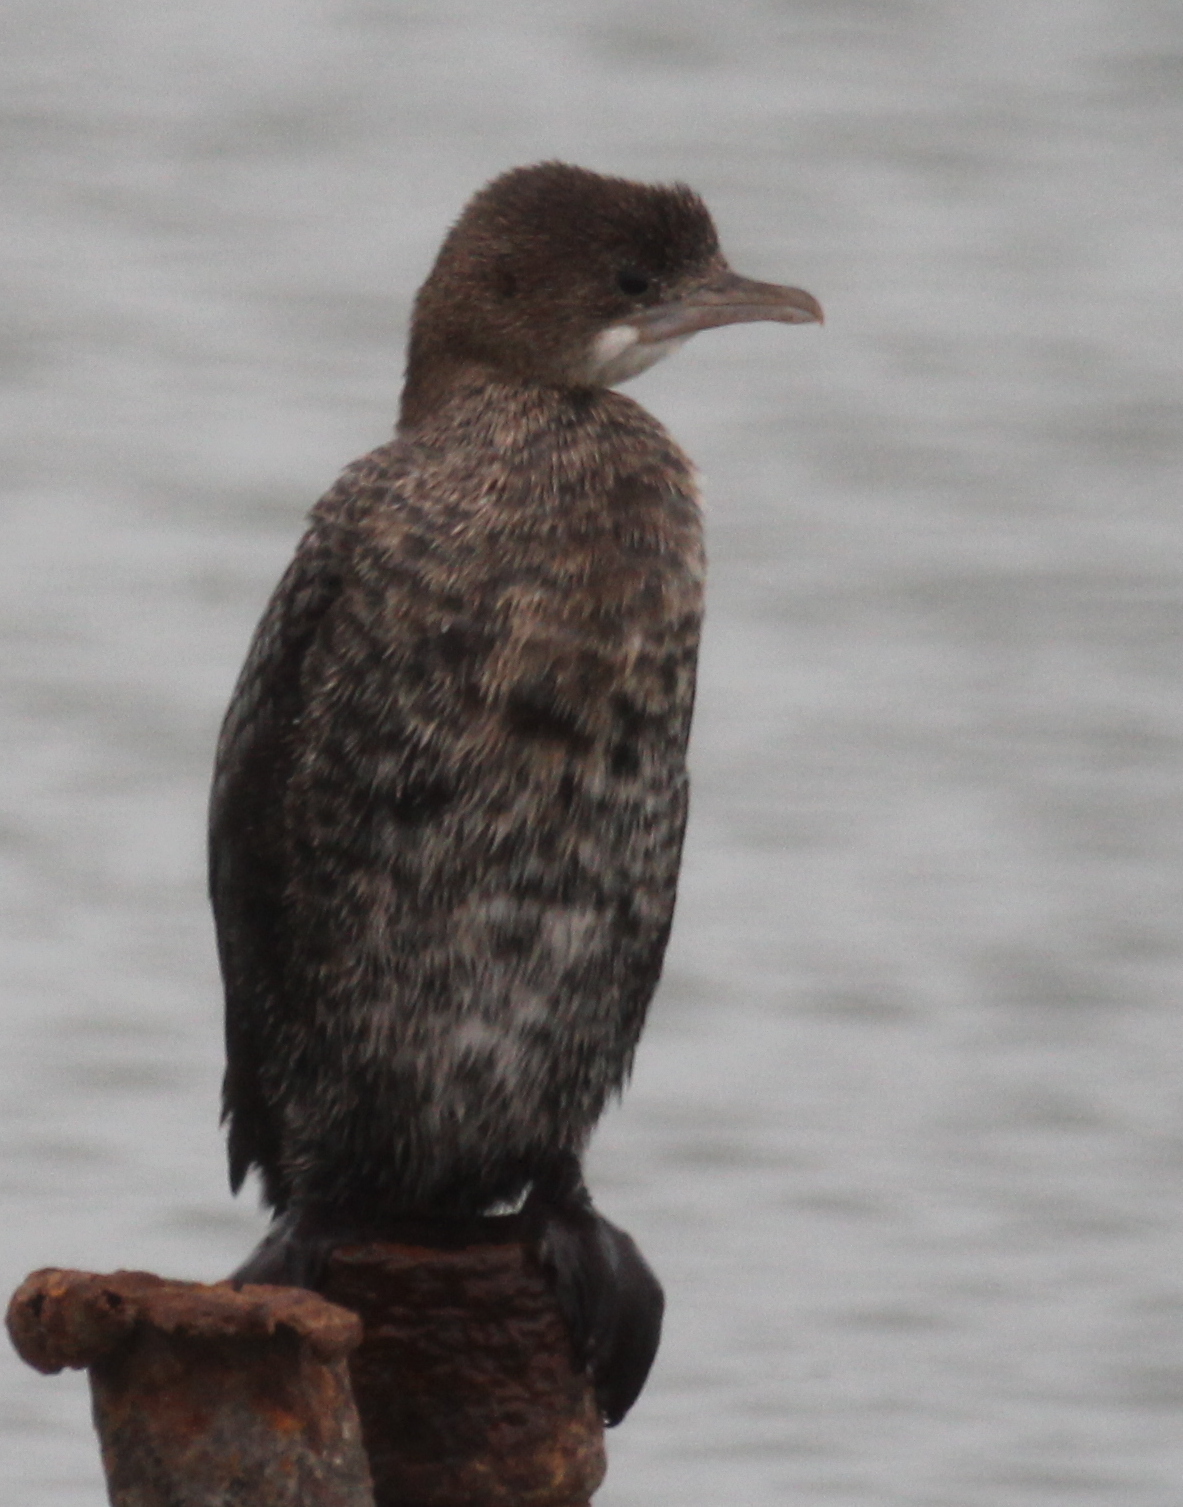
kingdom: Animalia
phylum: Chordata
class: Aves
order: Suliformes
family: Phalacrocoracidae
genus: Microcarbo
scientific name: Microcarbo pygmaeus
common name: Pygmy cormorant
